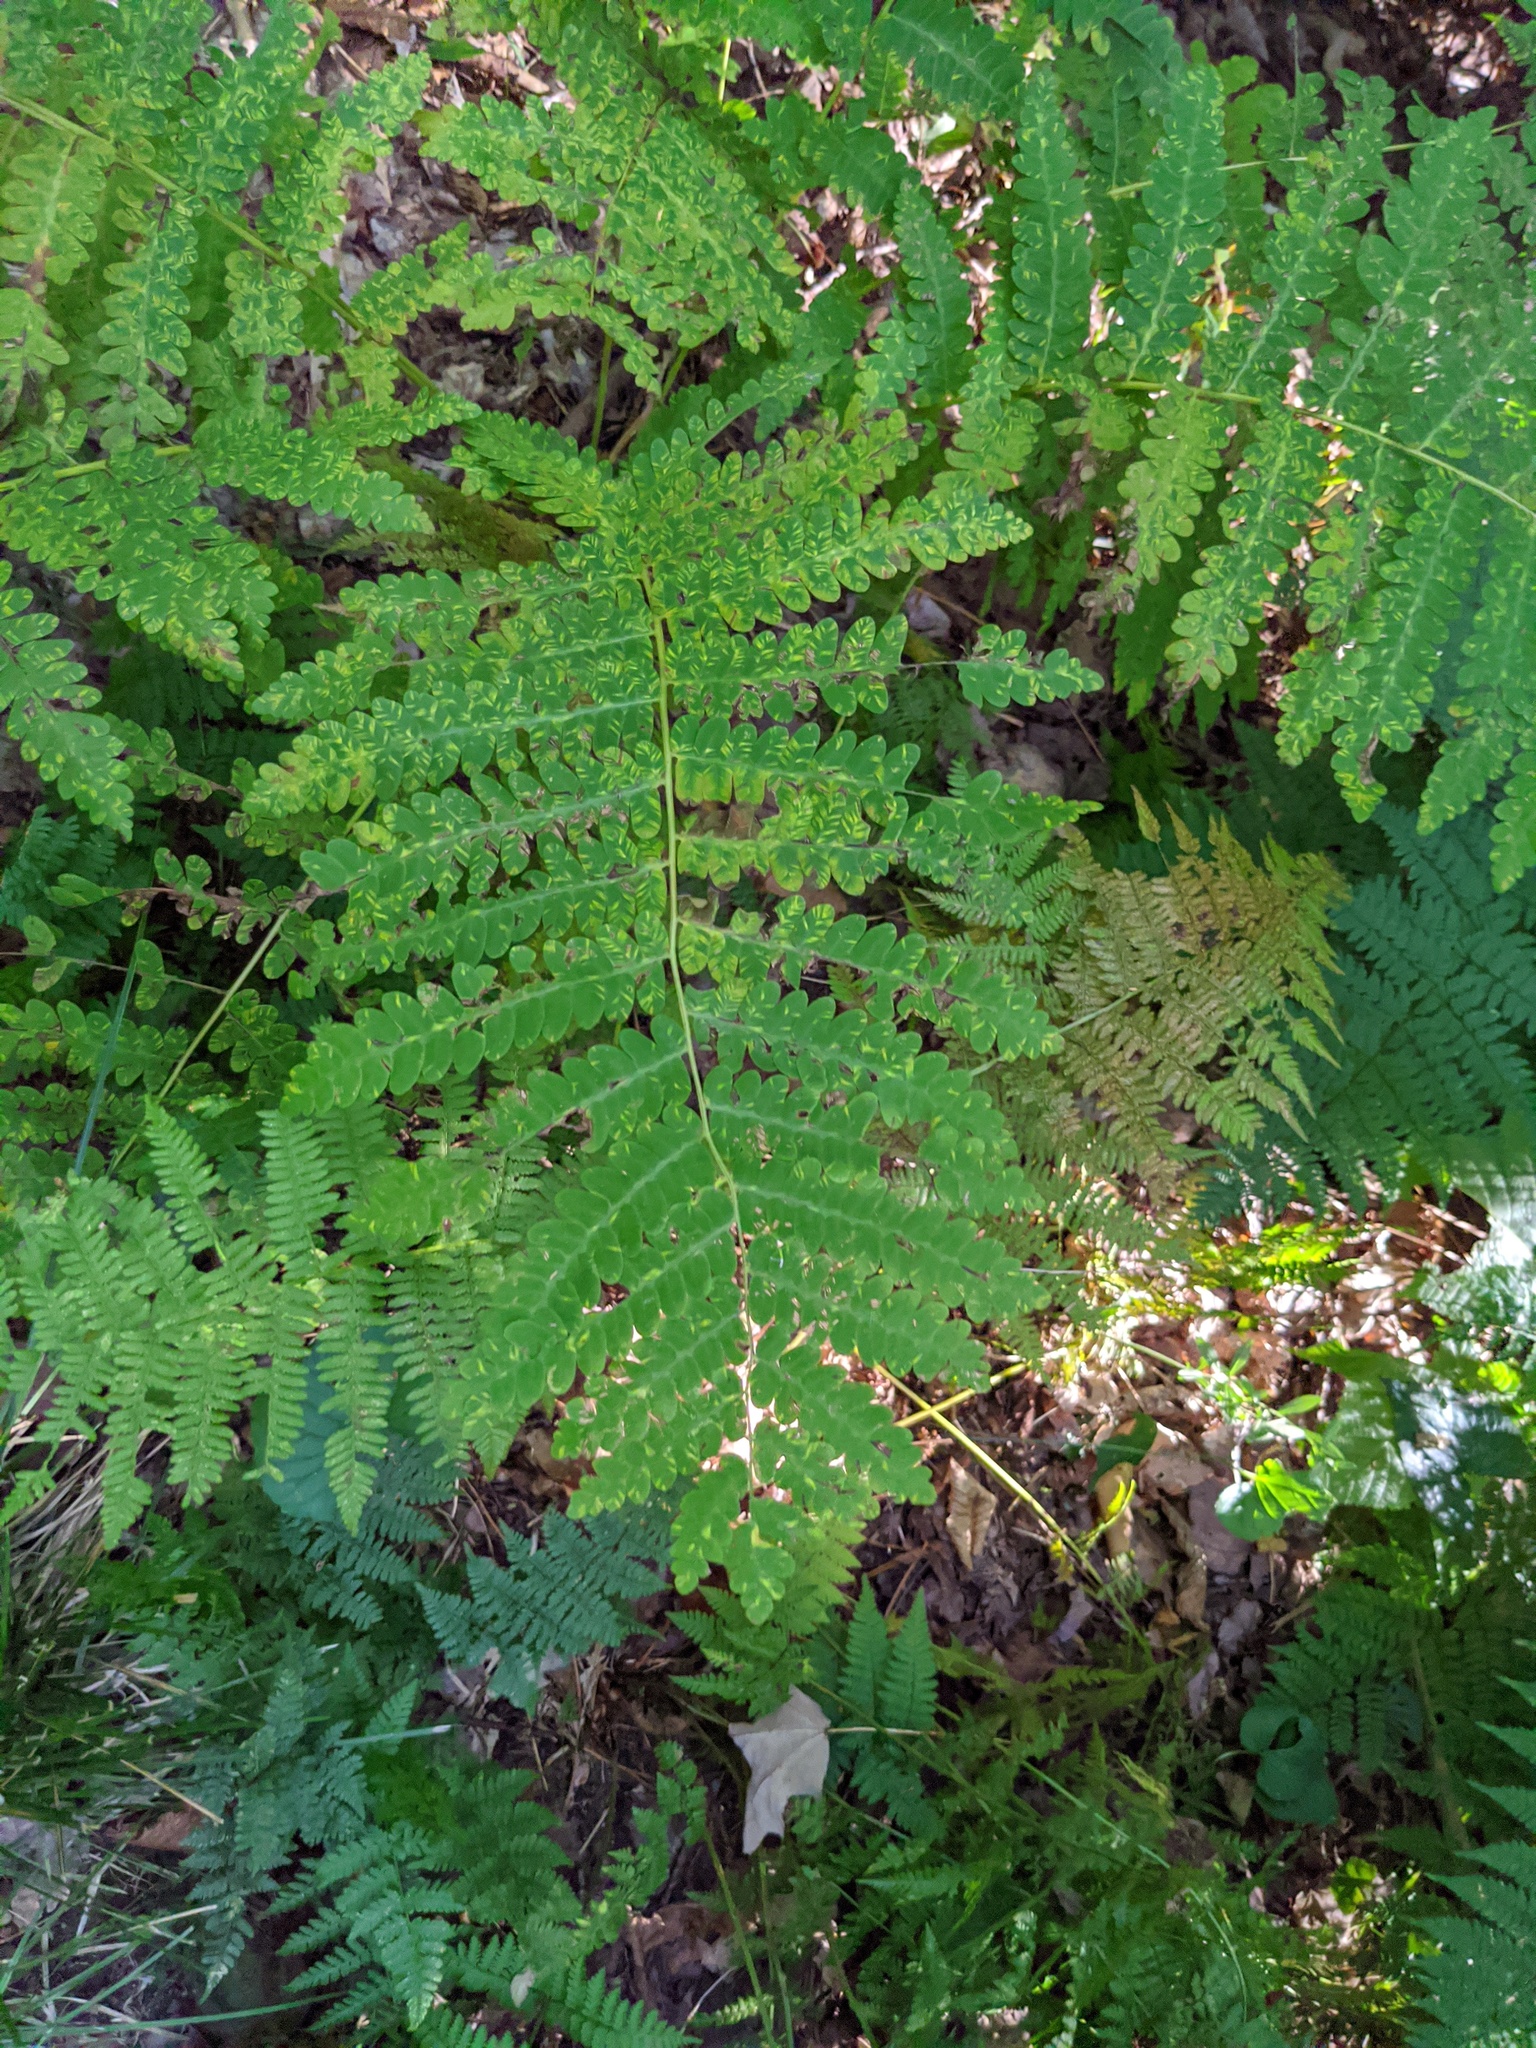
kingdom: Plantae
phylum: Tracheophyta
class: Polypodiopsida
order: Osmundales
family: Osmundaceae
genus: Claytosmunda
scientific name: Claytosmunda claytoniana
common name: Clayton's fern
